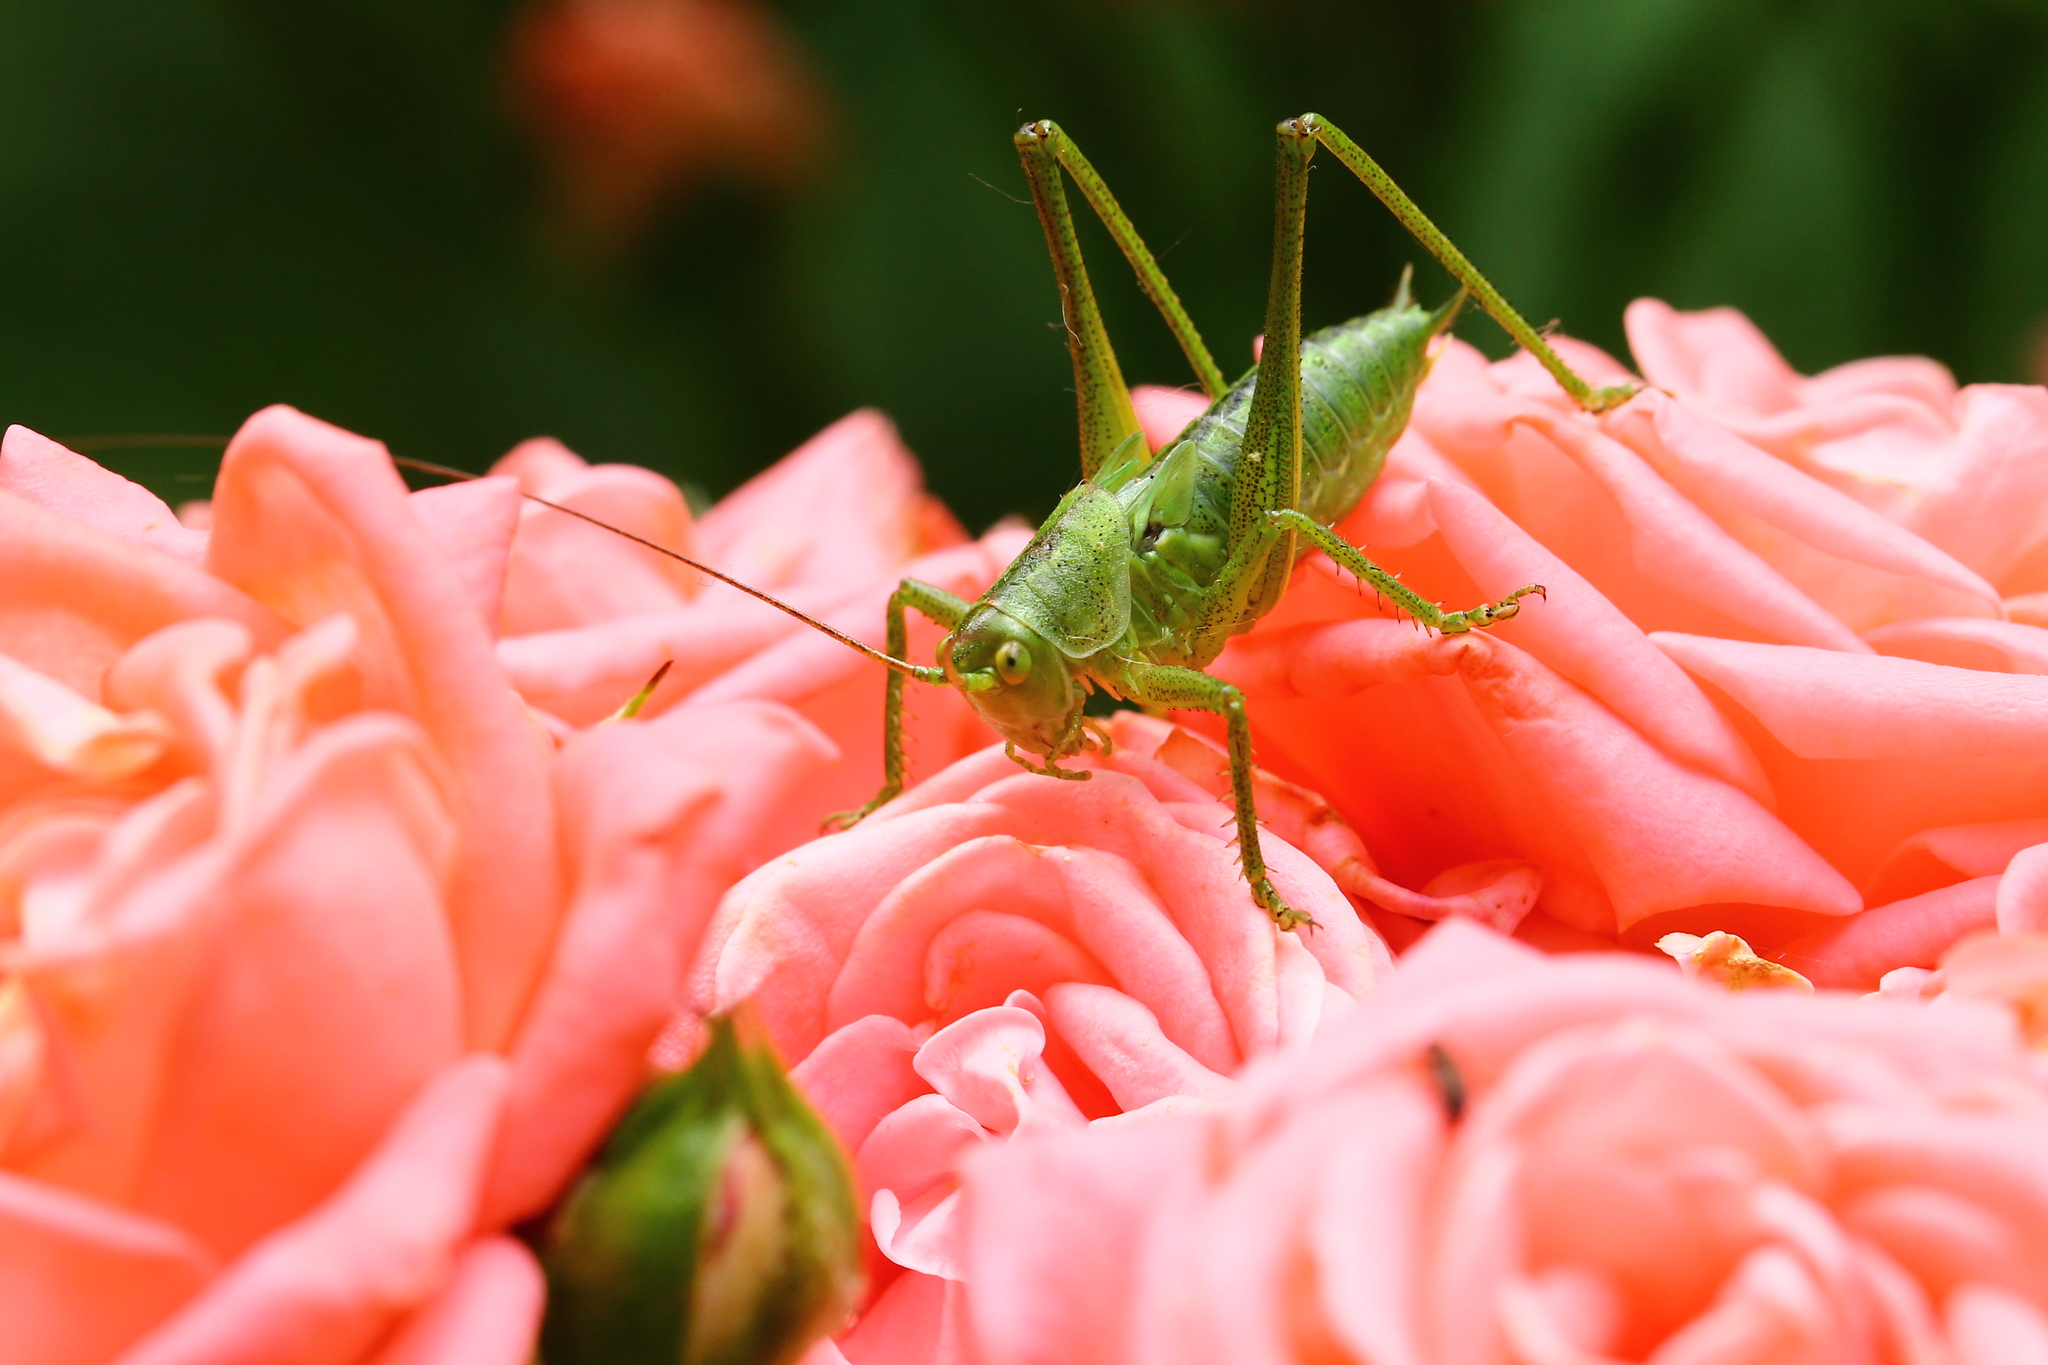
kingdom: Animalia
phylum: Arthropoda
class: Insecta
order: Orthoptera
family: Tettigoniidae
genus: Tettigonia
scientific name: Tettigonia viridissima
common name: Great green bush-cricket
